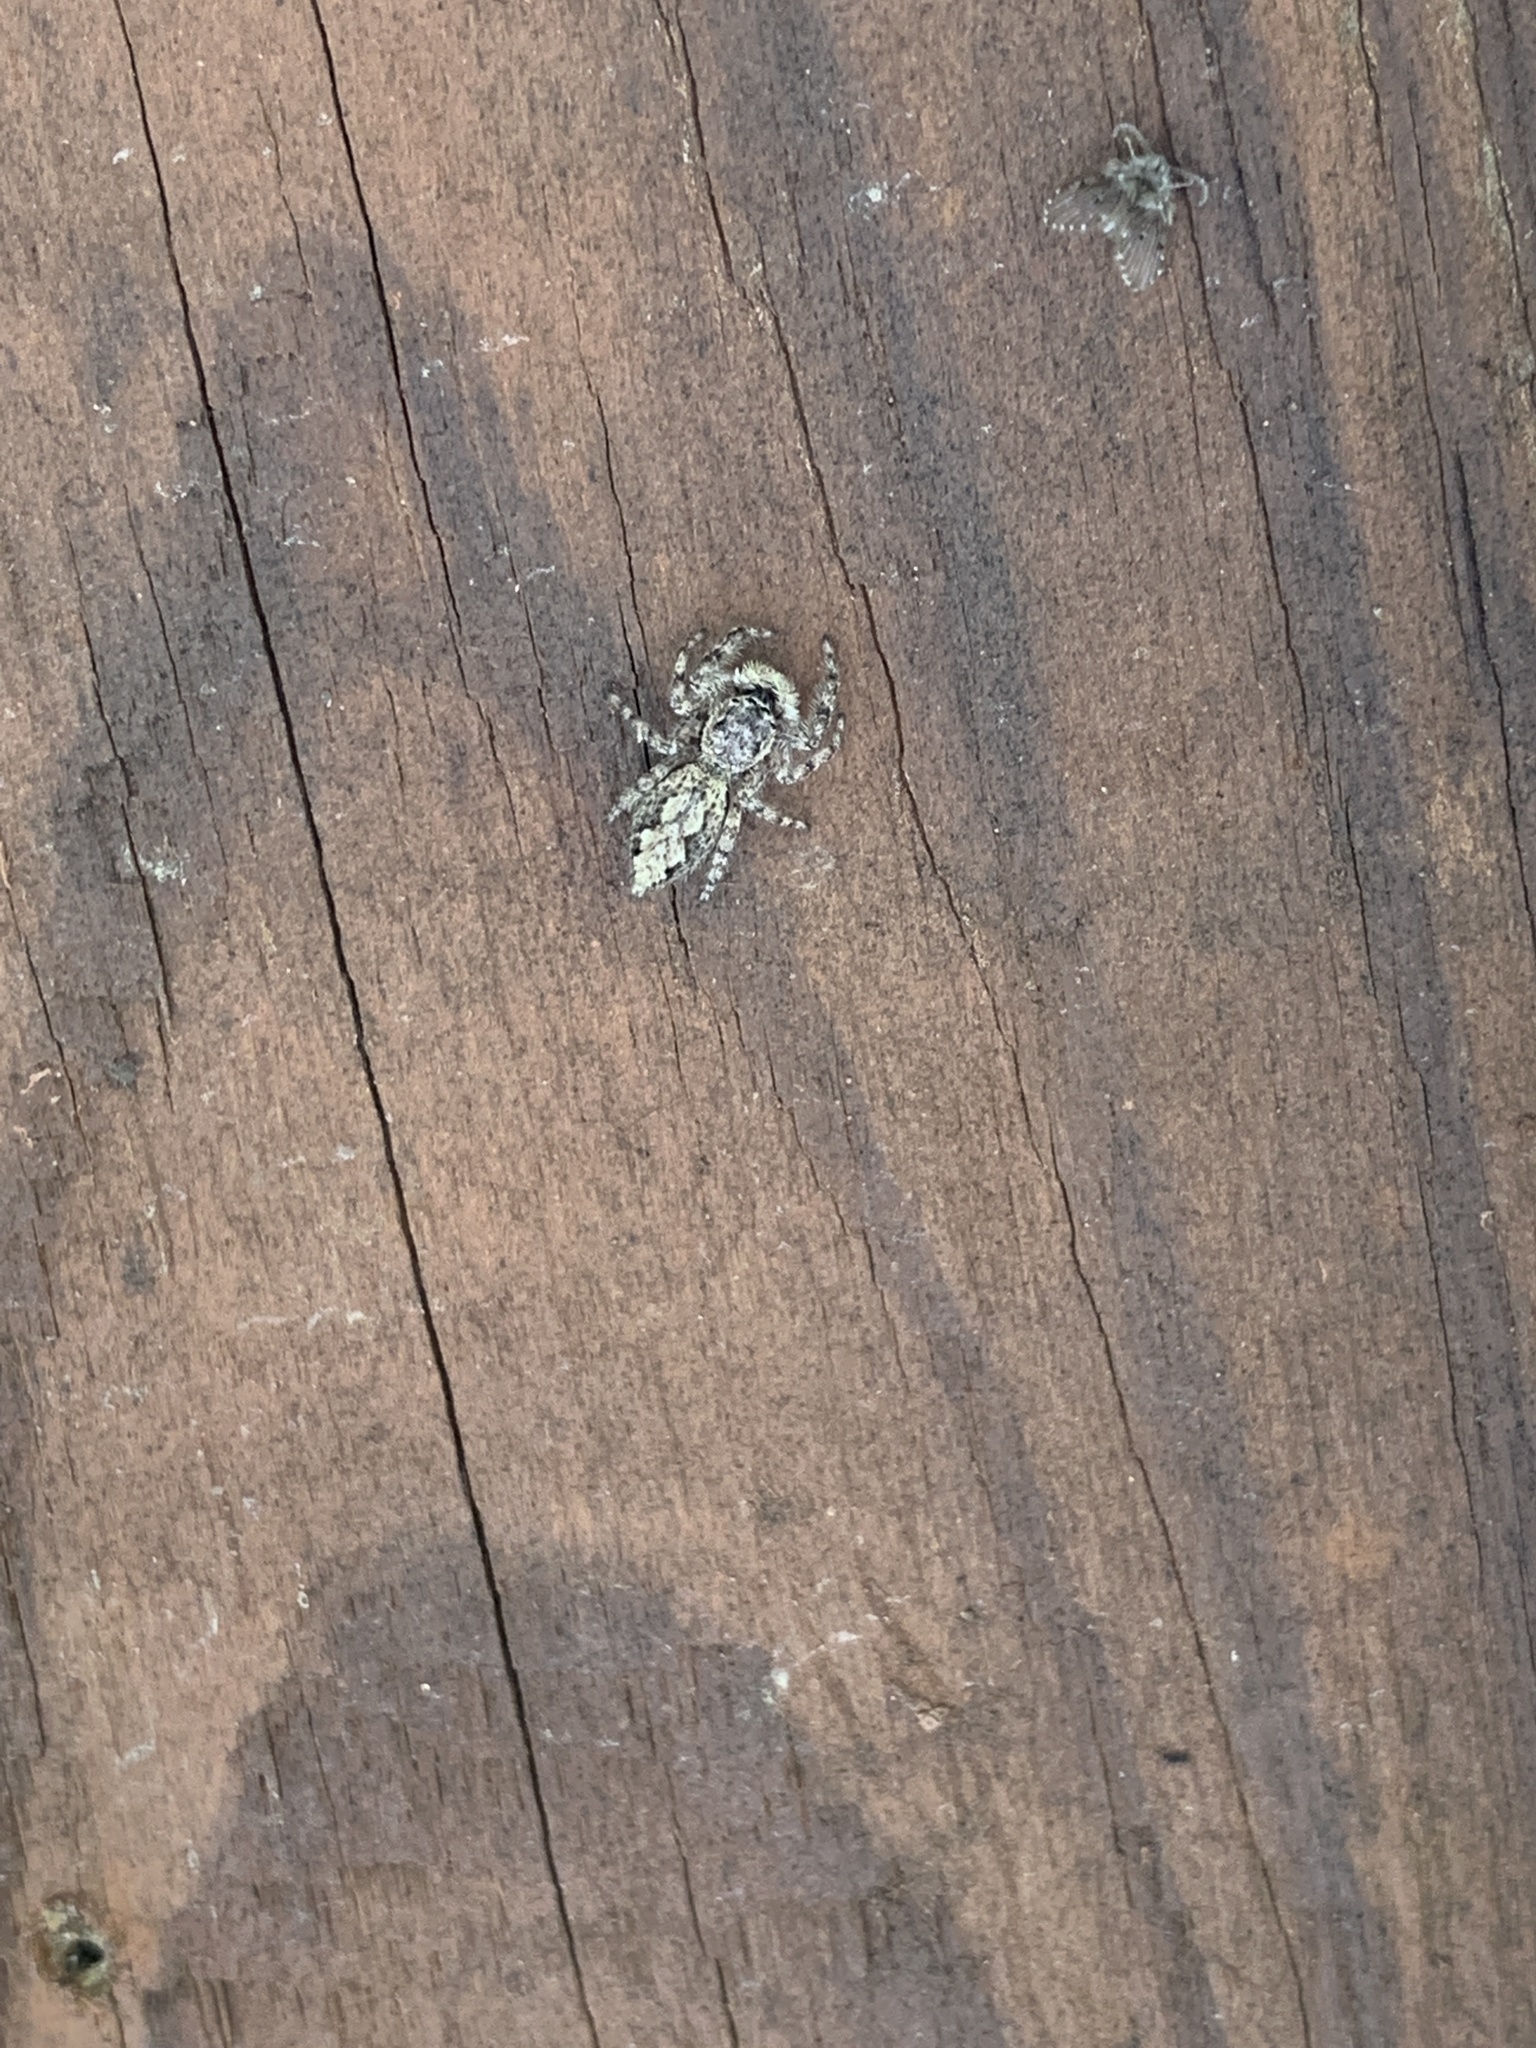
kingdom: Animalia
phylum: Arthropoda
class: Arachnida
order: Araneae
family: Salticidae
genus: Platycryptus
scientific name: Platycryptus undatus
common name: Tan jumping spider
